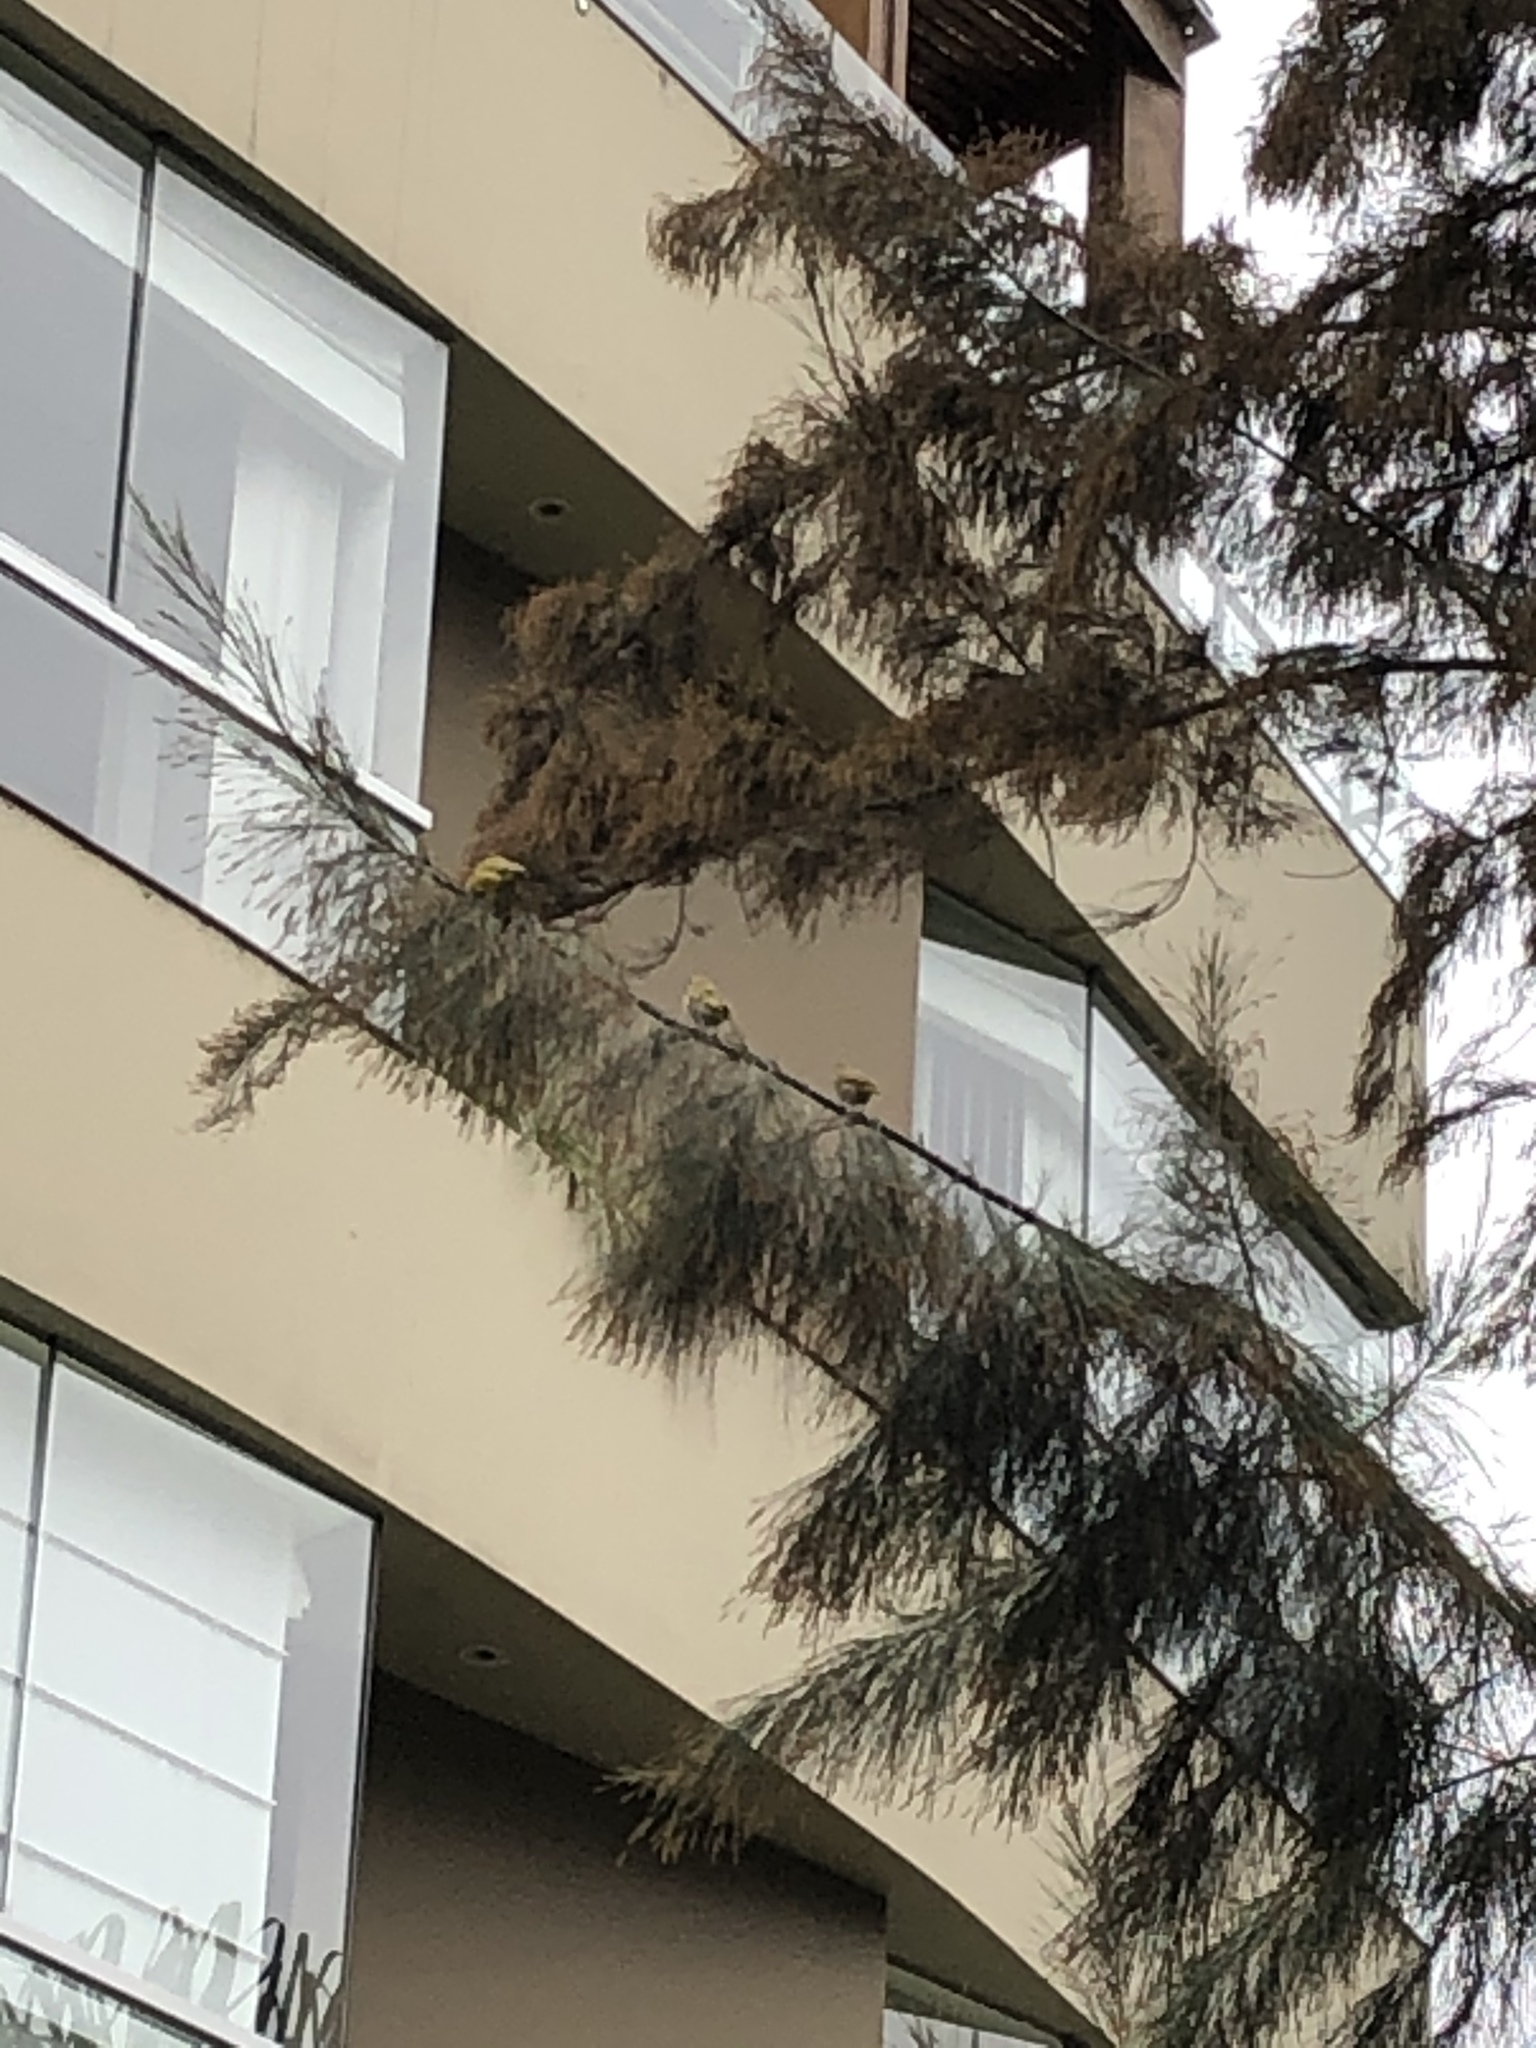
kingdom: Animalia
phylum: Chordata
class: Aves
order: Passeriformes
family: Thraupidae
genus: Sicalis
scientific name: Sicalis flaveola
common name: Saffron finch
